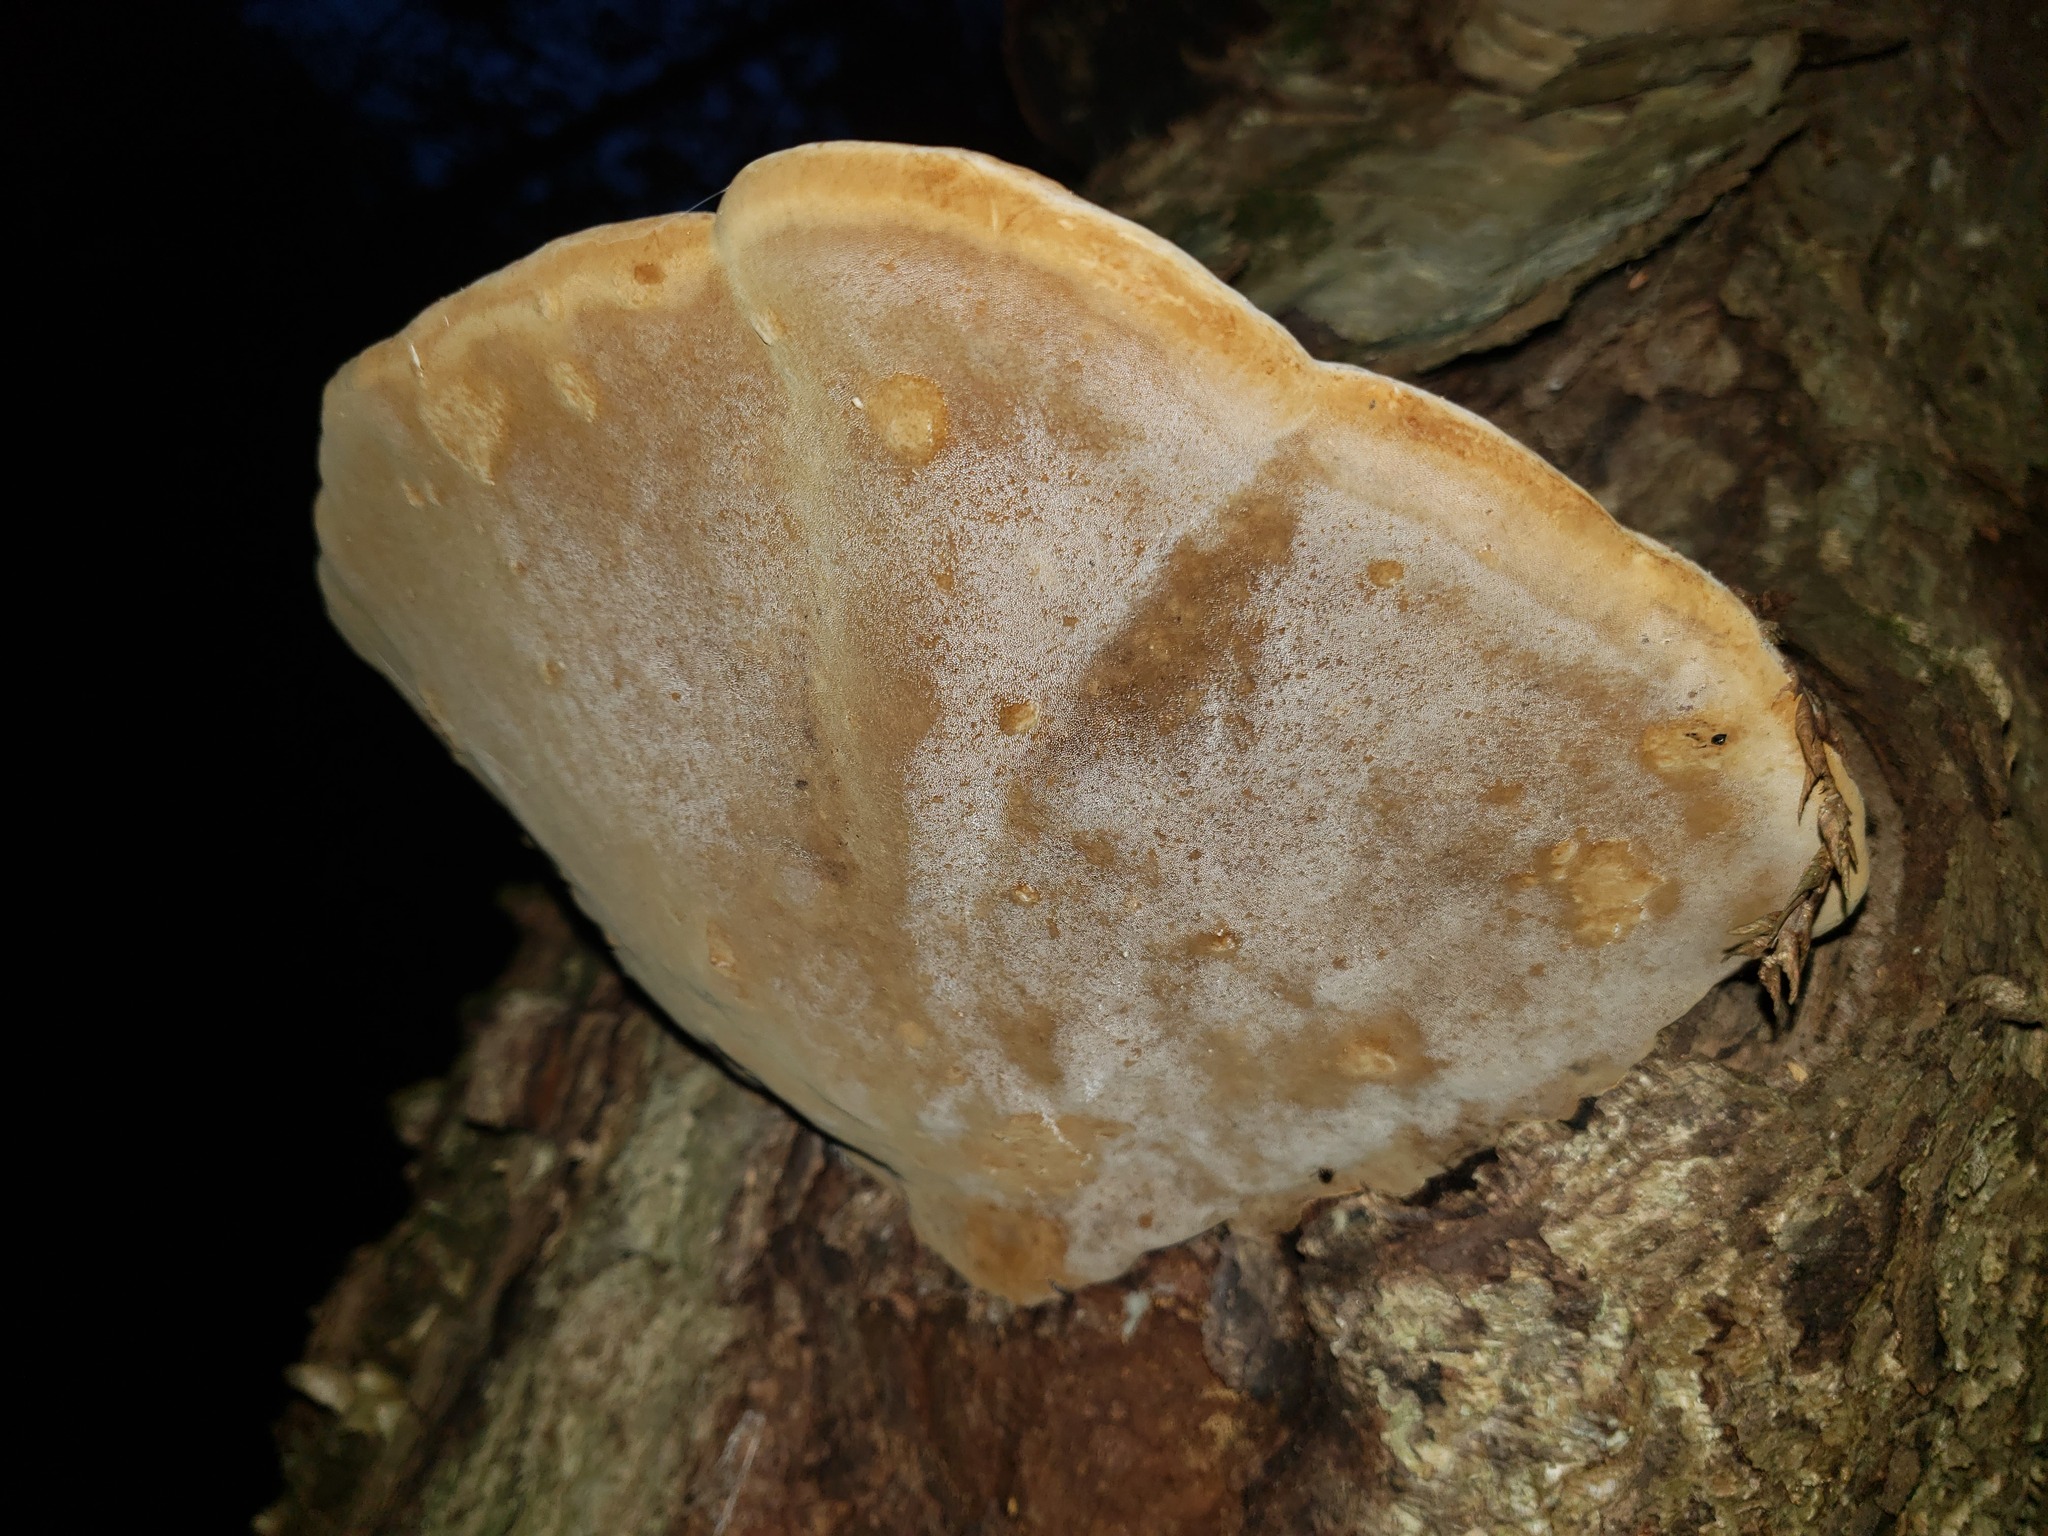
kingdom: Fungi
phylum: Basidiomycota
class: Agaricomycetes
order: Hymenochaetales
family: Hymenochaetaceae
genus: Phellinus
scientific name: Phellinus igniarius
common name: Willow bracket
